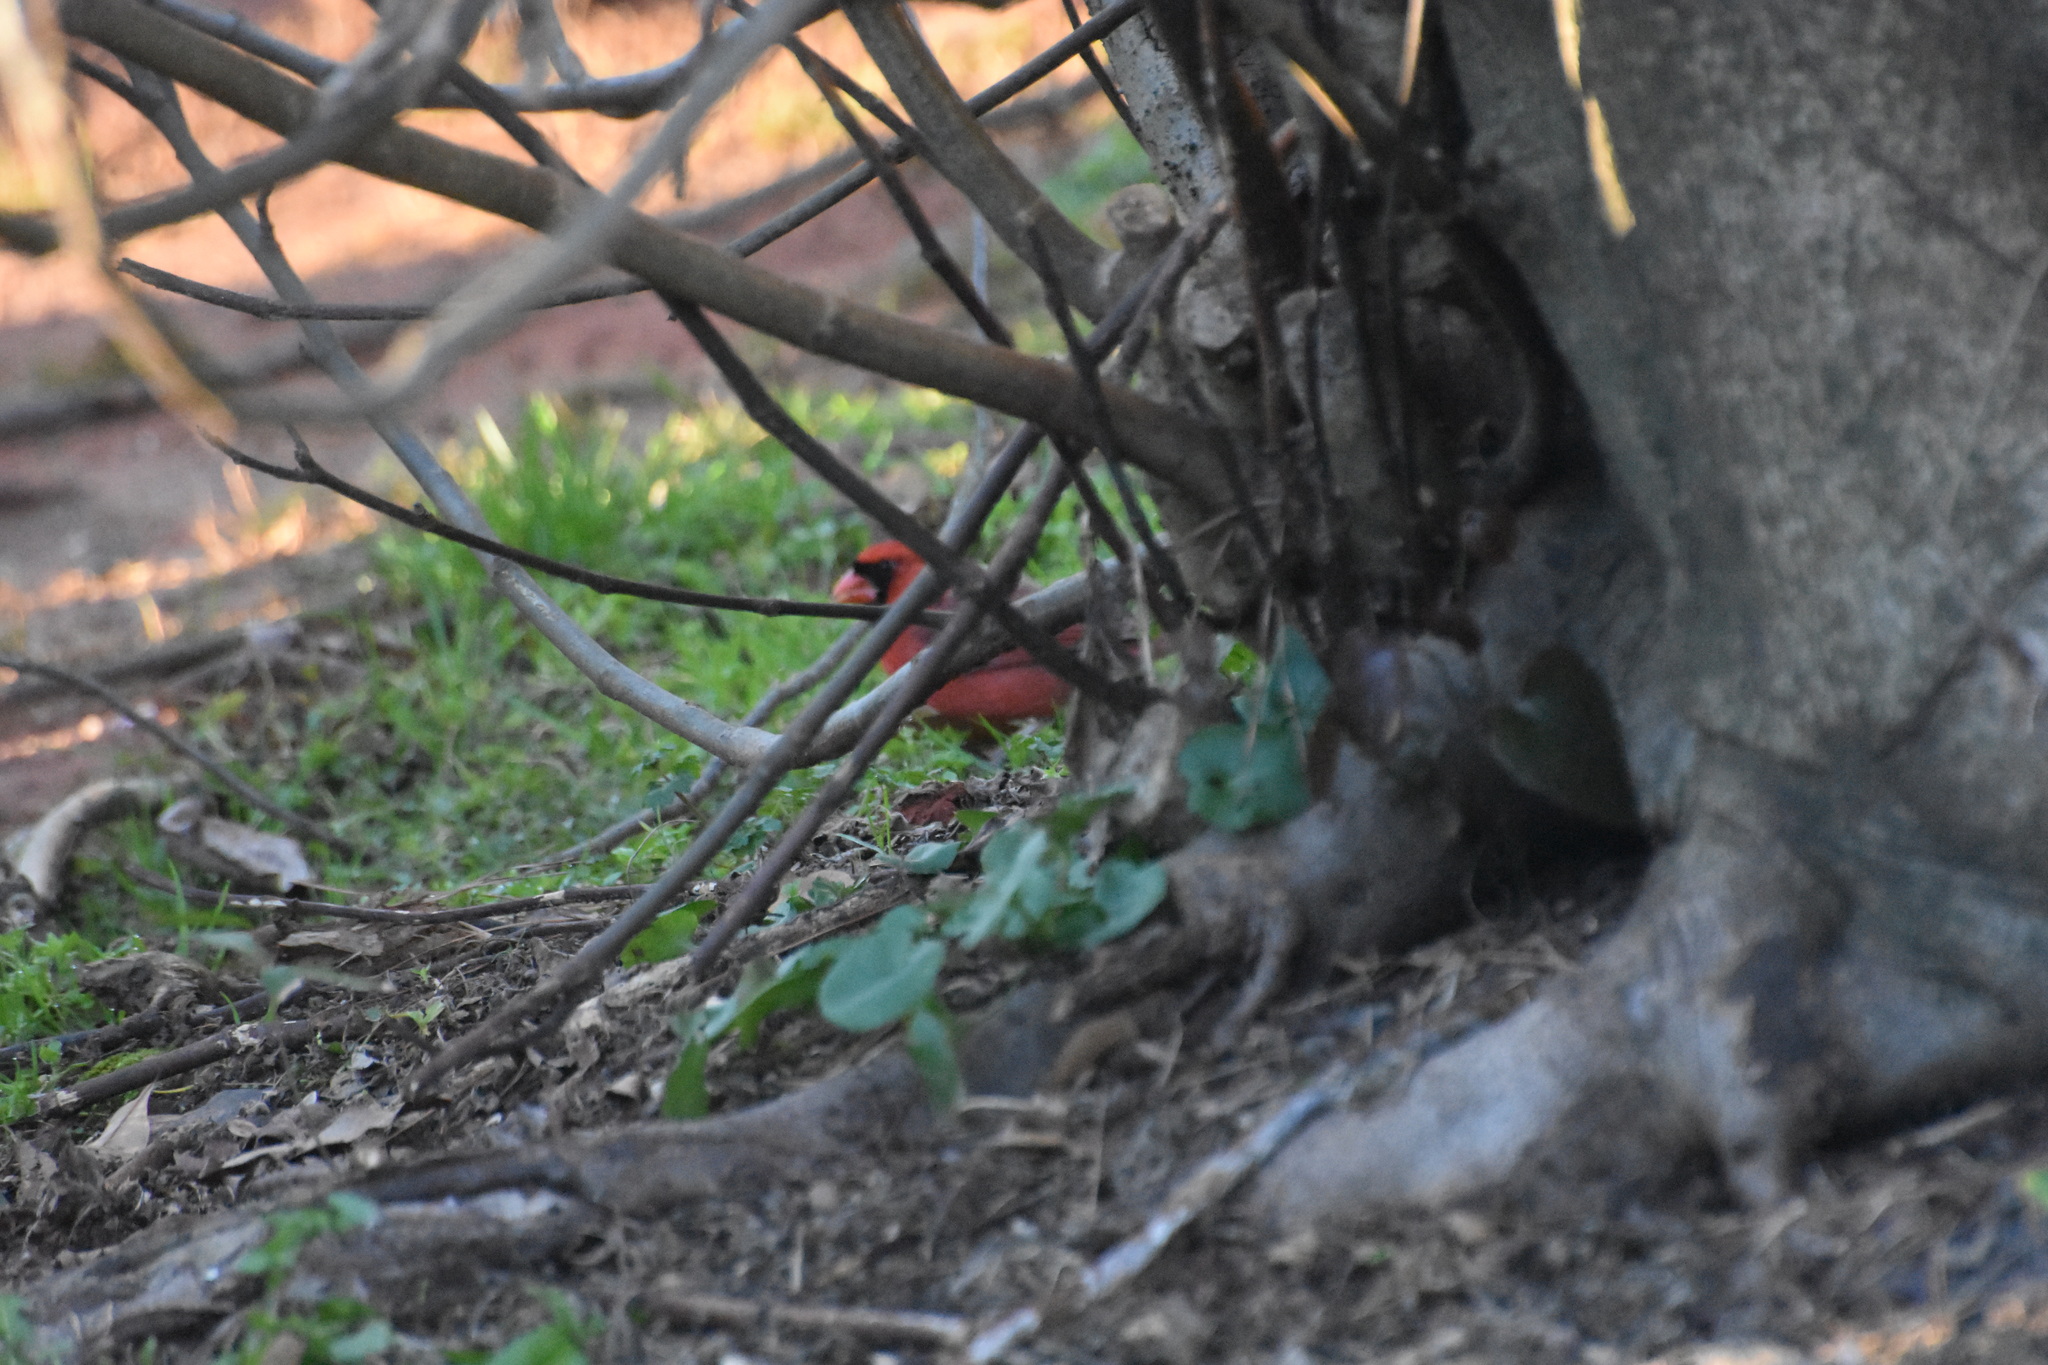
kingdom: Animalia
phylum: Chordata
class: Aves
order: Passeriformes
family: Cardinalidae
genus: Cardinalis
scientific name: Cardinalis cardinalis
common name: Northern cardinal
